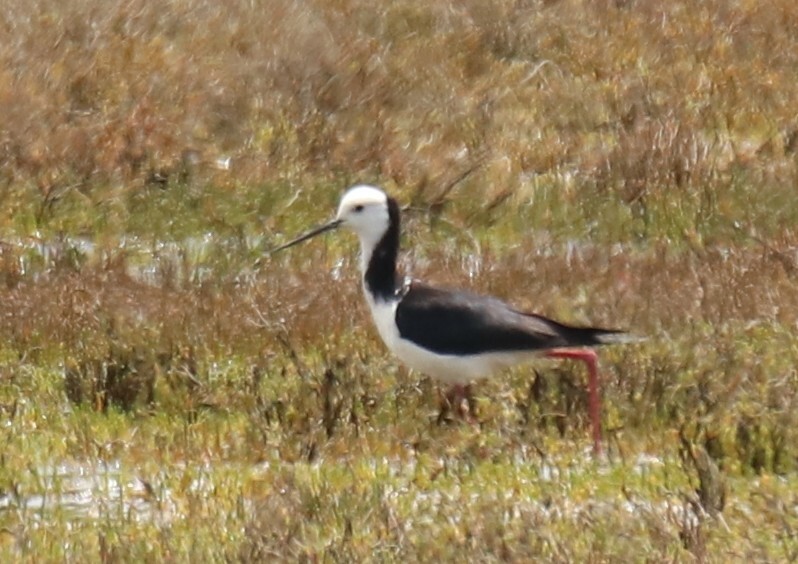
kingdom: Animalia
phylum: Chordata
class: Aves
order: Charadriiformes
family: Recurvirostridae
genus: Himantopus
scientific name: Himantopus leucocephalus
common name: White-headed stilt
